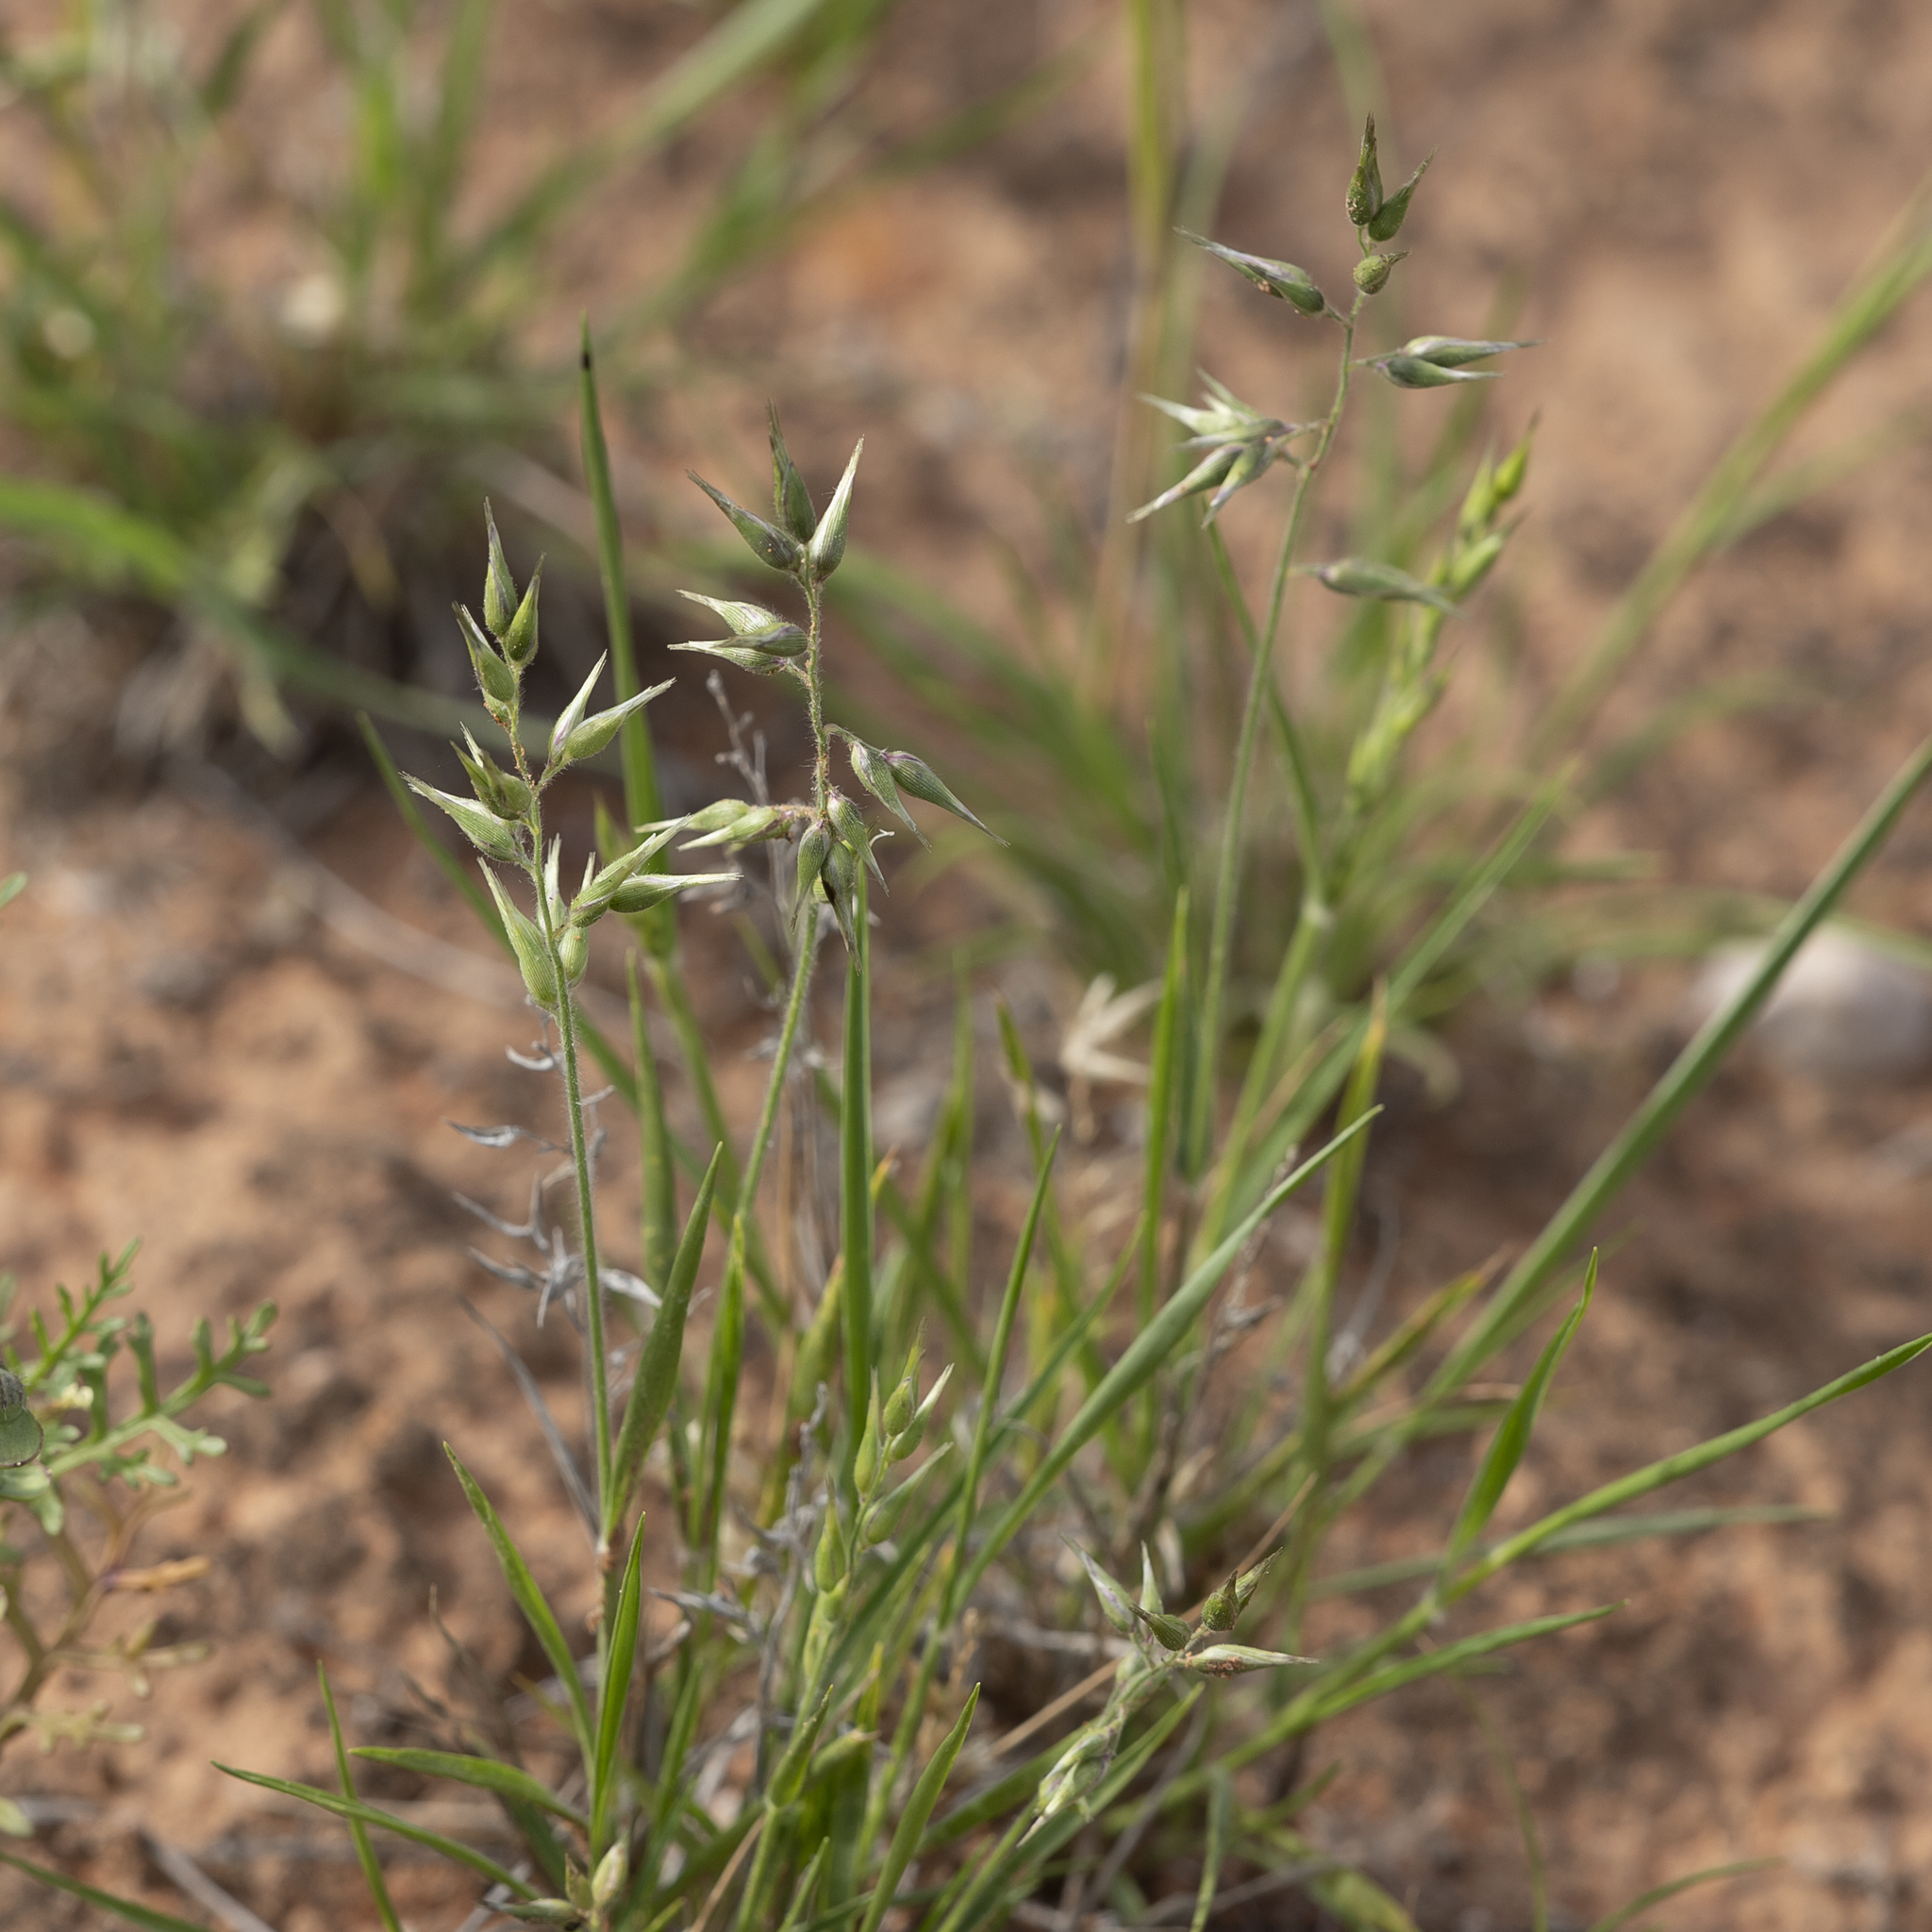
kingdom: Plantae
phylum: Tracheophyta
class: Liliopsida
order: Poales
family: Poaceae
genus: Enneapogon
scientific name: Enneapogon avenaceus
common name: Hairy oat grass
